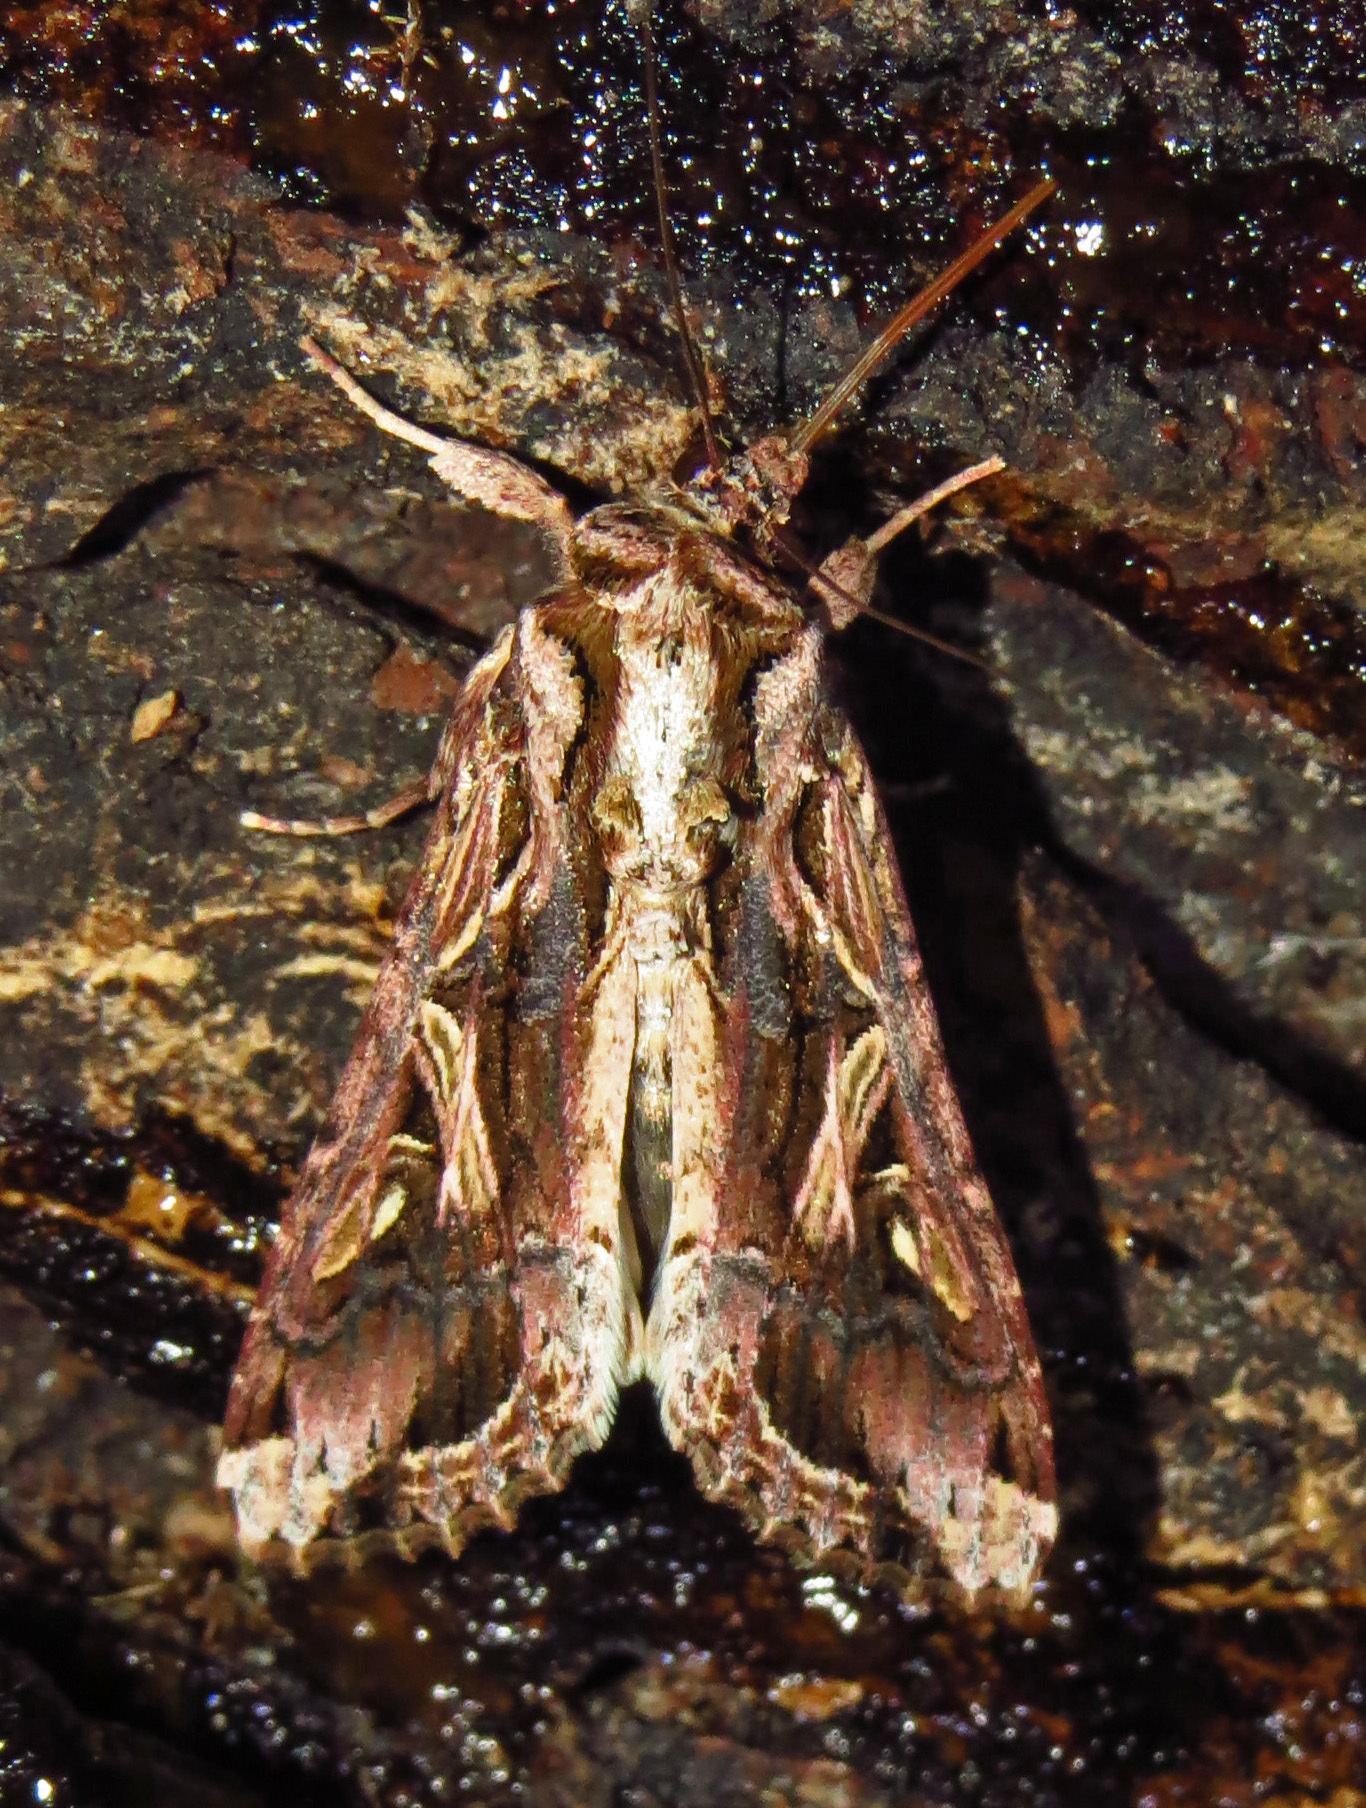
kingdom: Animalia
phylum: Arthropoda
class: Insecta
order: Lepidoptera
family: Noctuidae
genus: Spodoptera
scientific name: Spodoptera dolichos
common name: Sweetpotato armyworm
